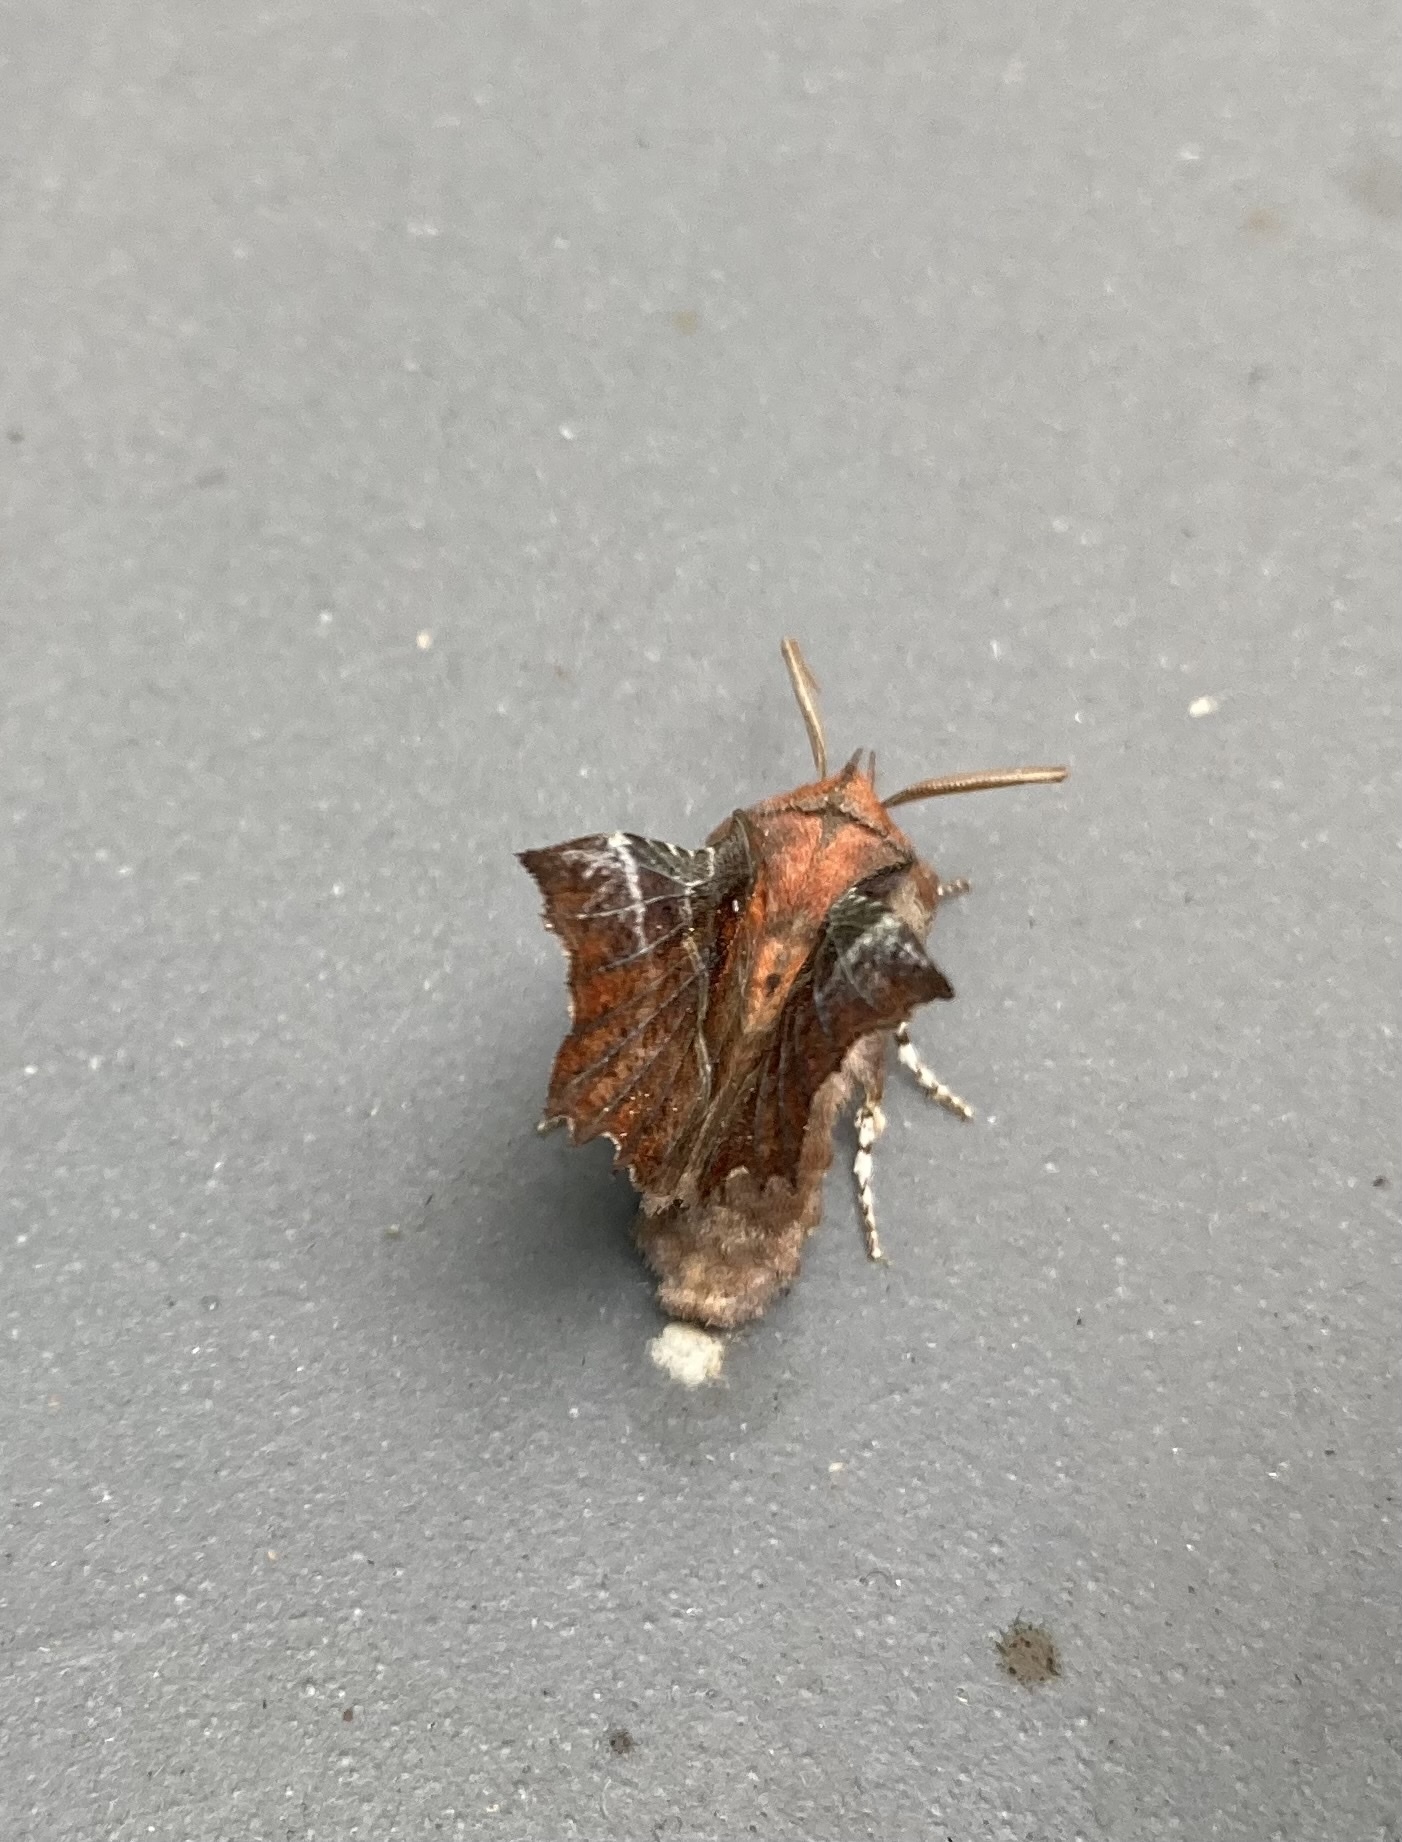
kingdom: Animalia
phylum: Arthropoda
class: Insecta
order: Lepidoptera
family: Erebidae
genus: Scoliopteryx
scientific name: Scoliopteryx libatrix
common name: Herald
